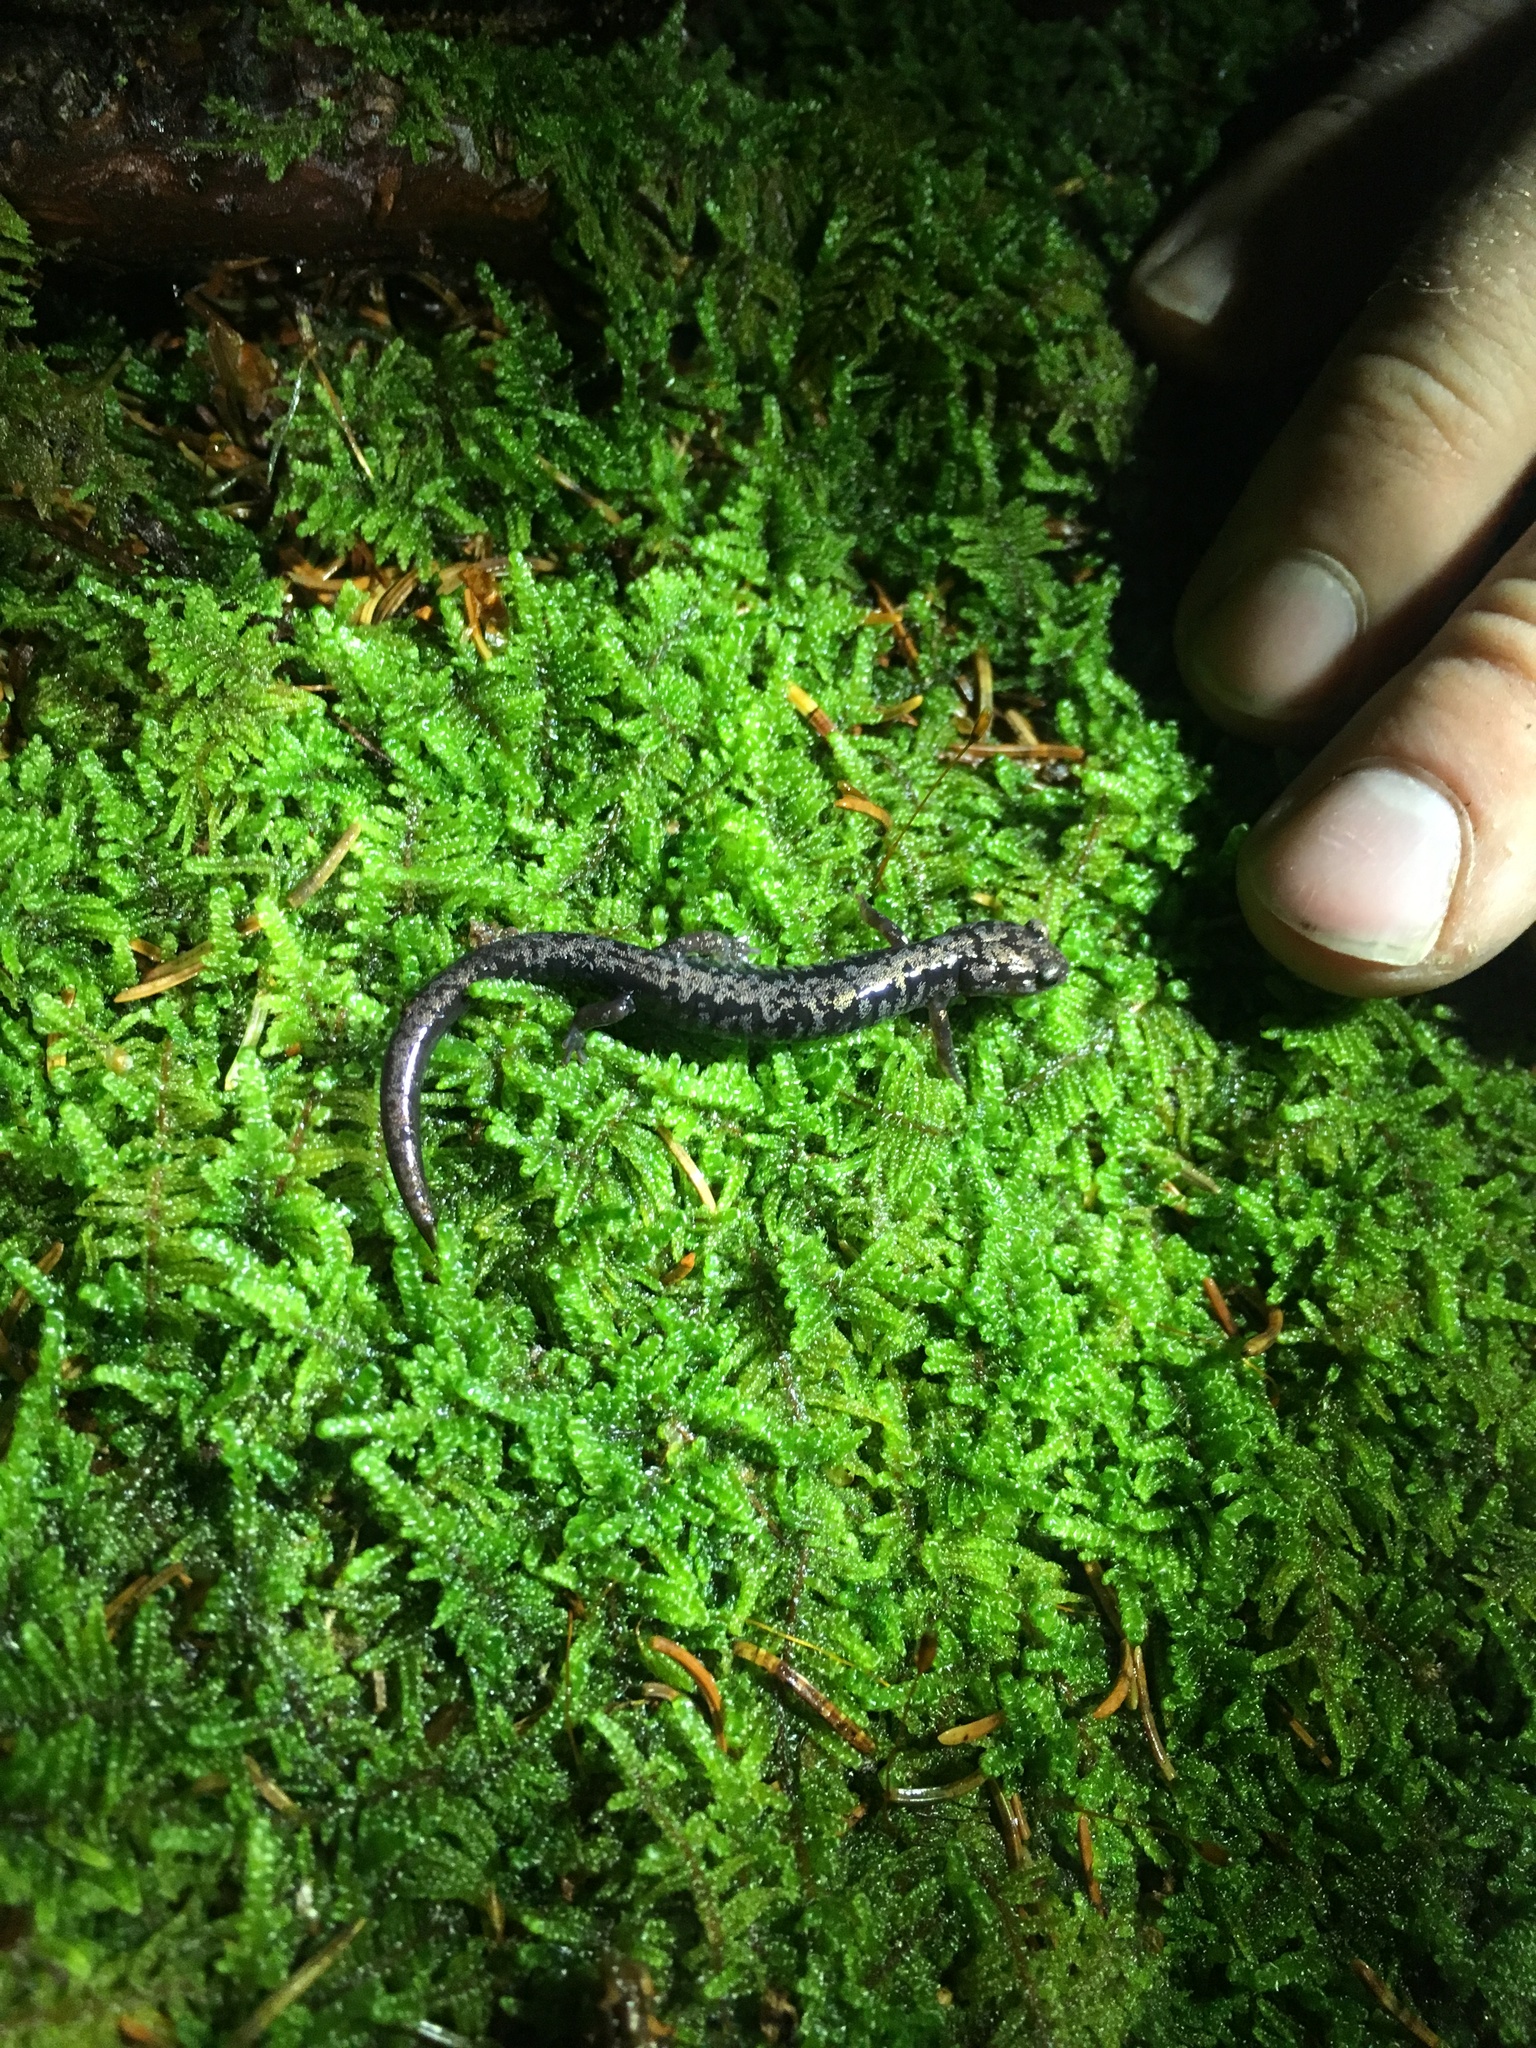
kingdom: Animalia
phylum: Chordata
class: Amphibia
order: Caudata
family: Plethodontidae
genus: Plethodon
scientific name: Plethodon welleri
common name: Weller's salamander
